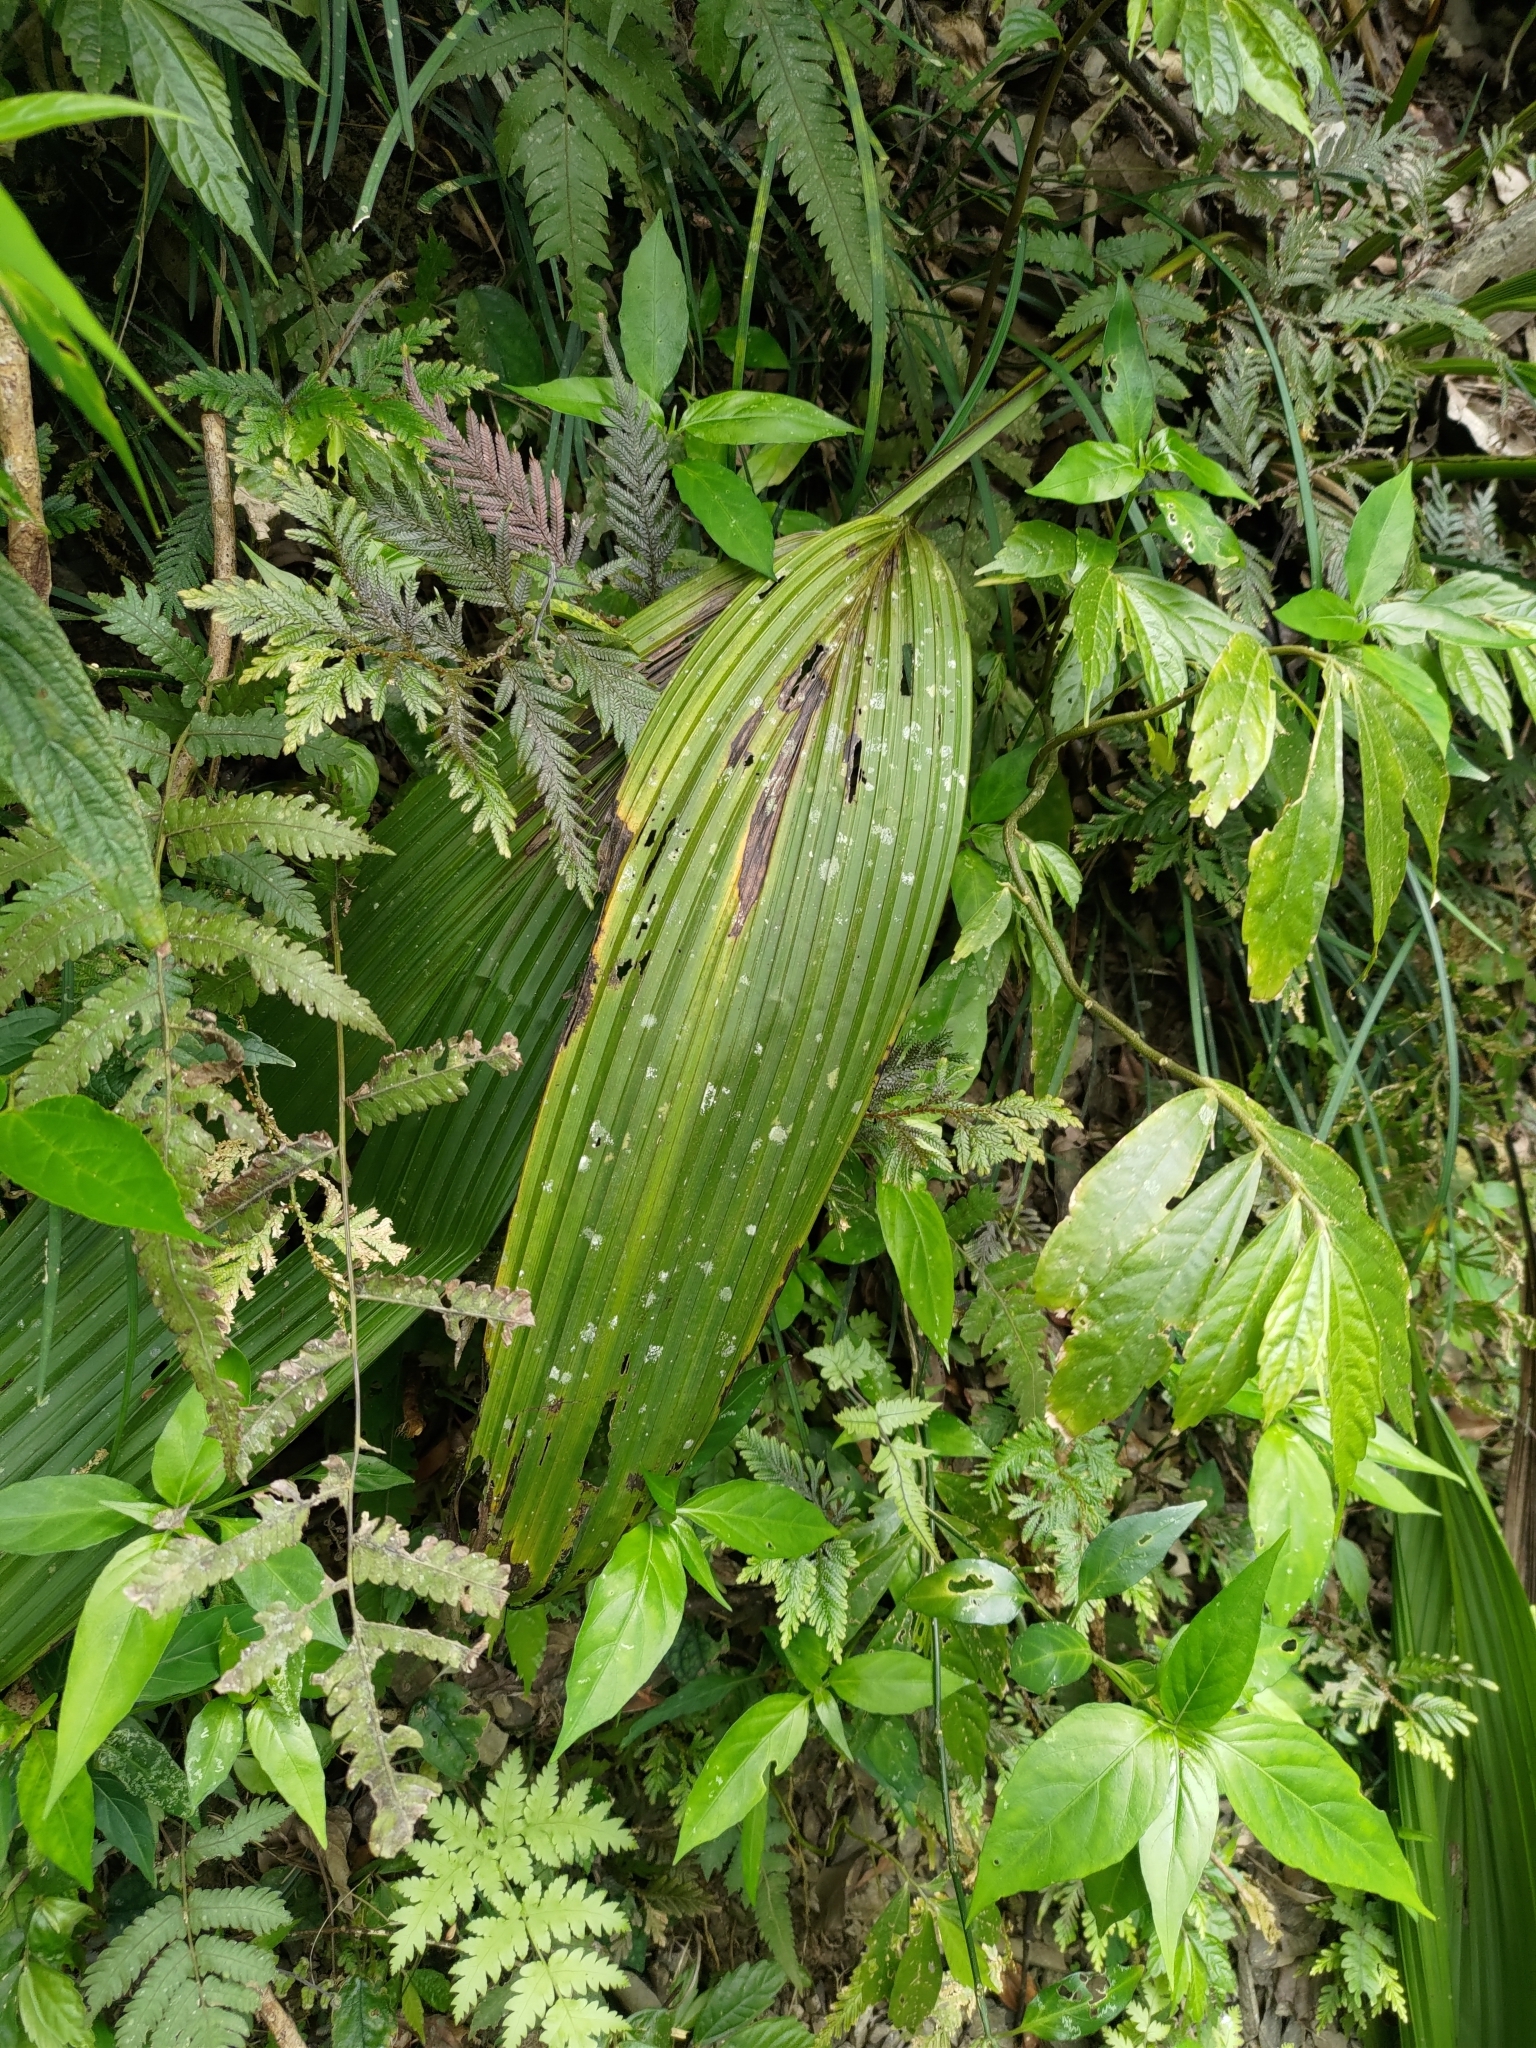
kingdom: Plantae
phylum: Tracheophyta
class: Liliopsida
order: Asparagales
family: Hypoxidaceae
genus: Curculigo
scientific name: Curculigo capitulata
